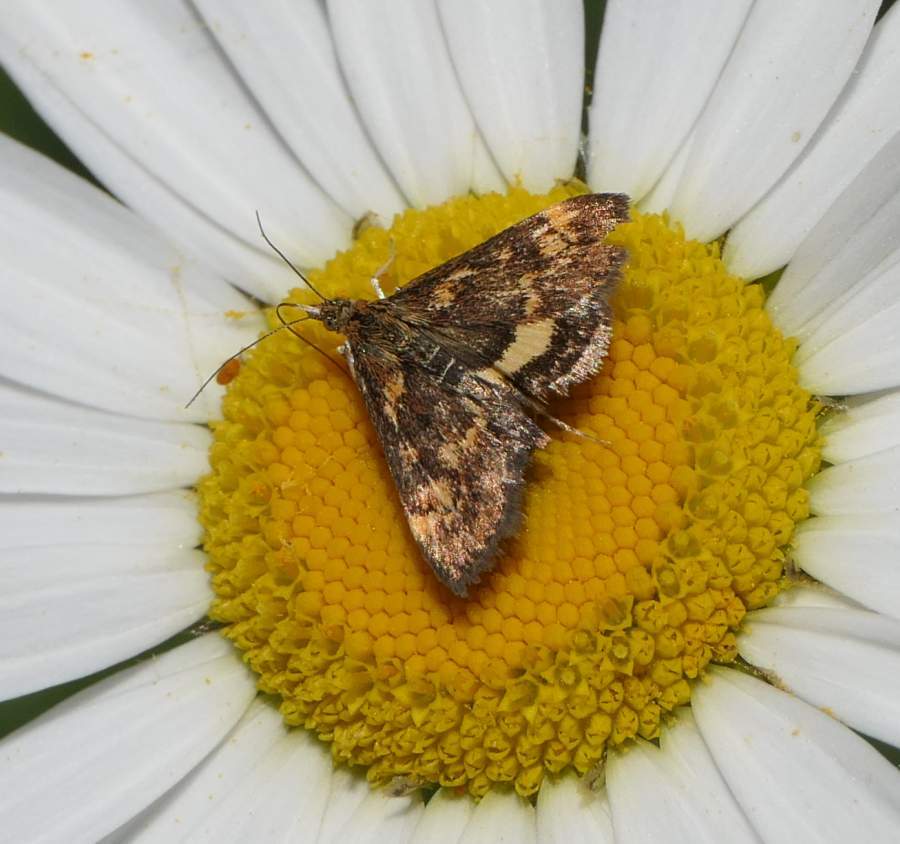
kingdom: Animalia
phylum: Arthropoda
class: Insecta
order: Lepidoptera
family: Crambidae
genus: Pyrausta
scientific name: Pyrausta orphisalis
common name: Orange mint moth
